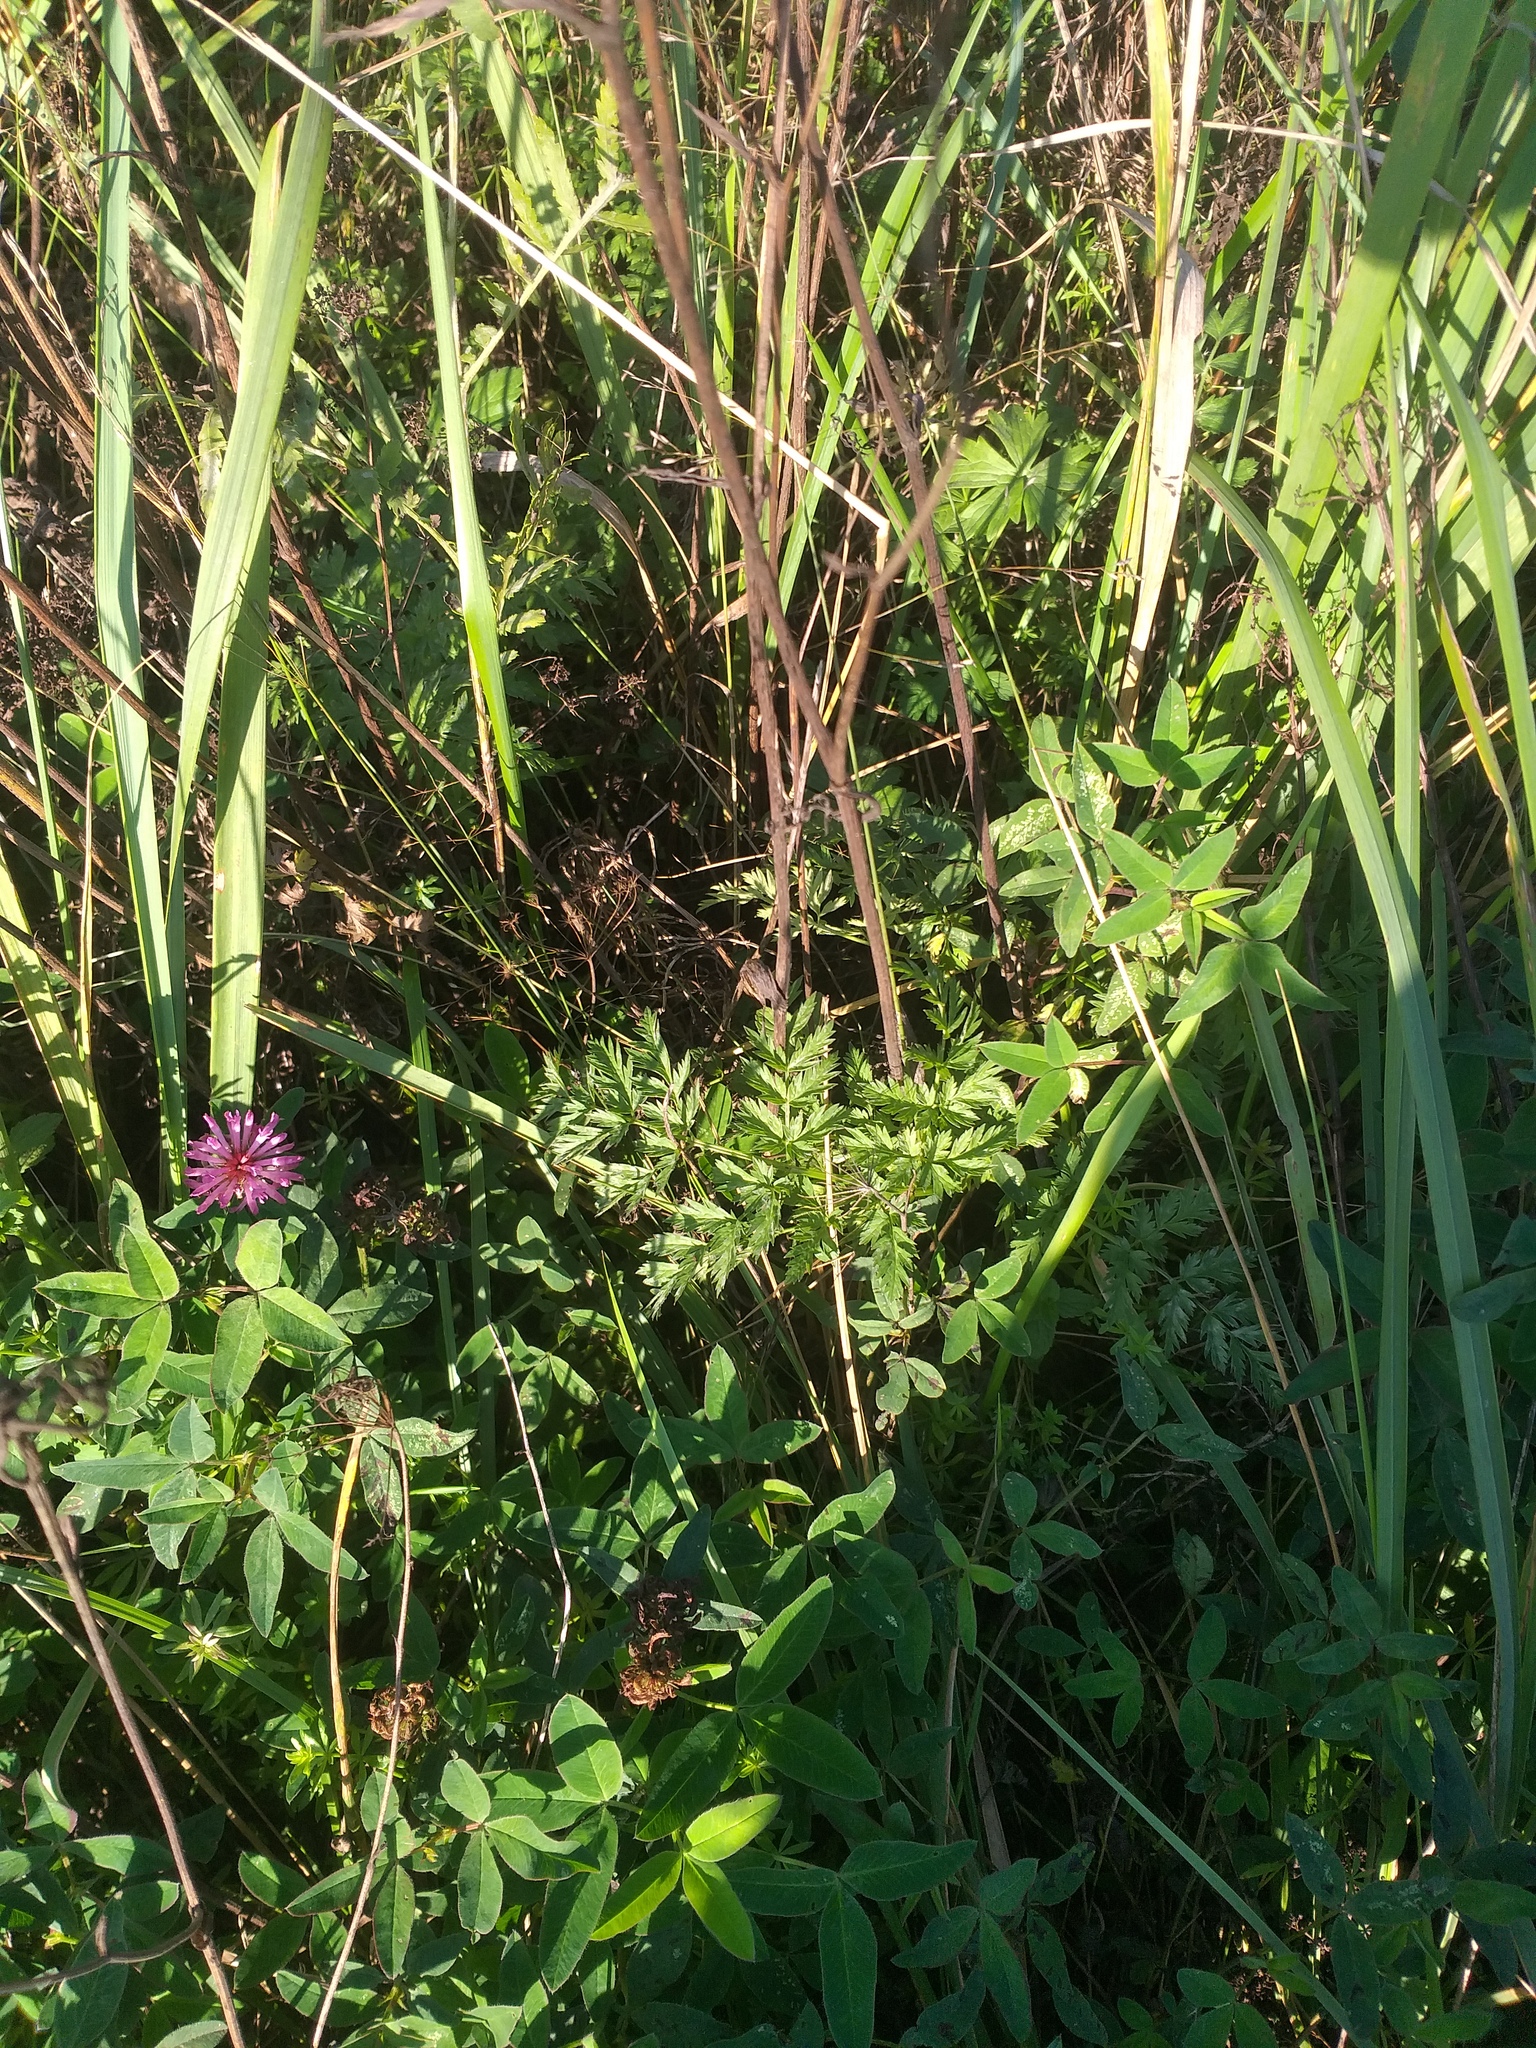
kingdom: Plantae
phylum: Tracheophyta
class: Magnoliopsida
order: Apiales
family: Apiaceae
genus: Anthriscus
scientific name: Anthriscus sylvestris
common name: Cow parsley
